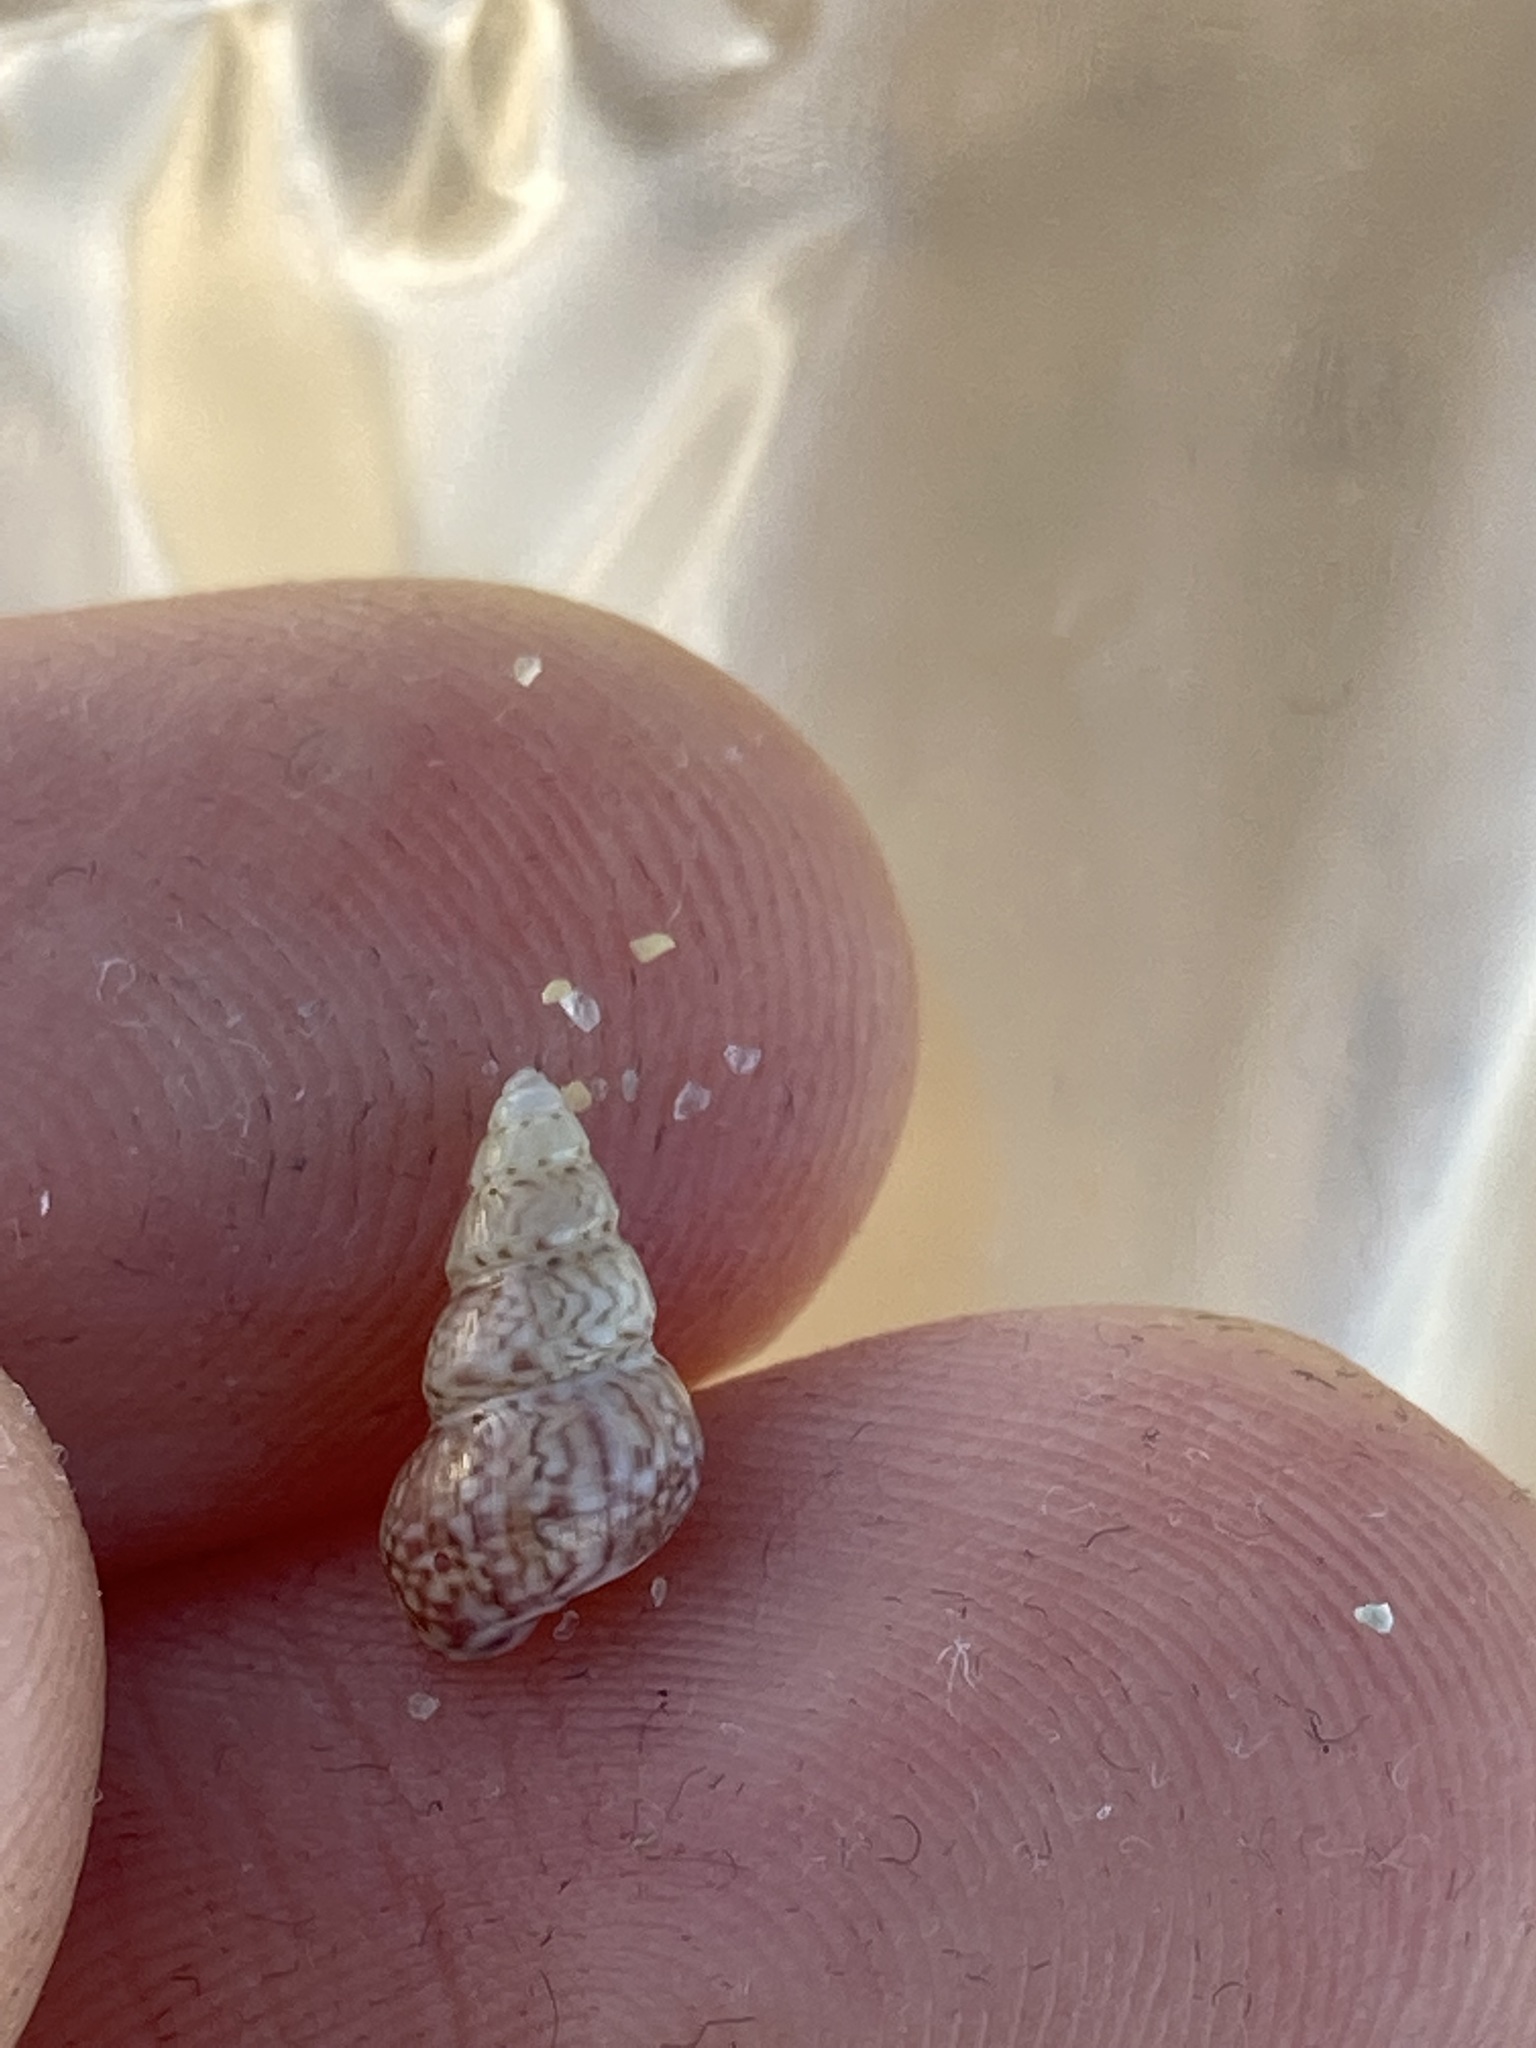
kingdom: Animalia
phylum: Mollusca
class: Gastropoda
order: Trochida
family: Trochidae
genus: Leiopyrga
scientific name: Leiopyrga lineolaris
